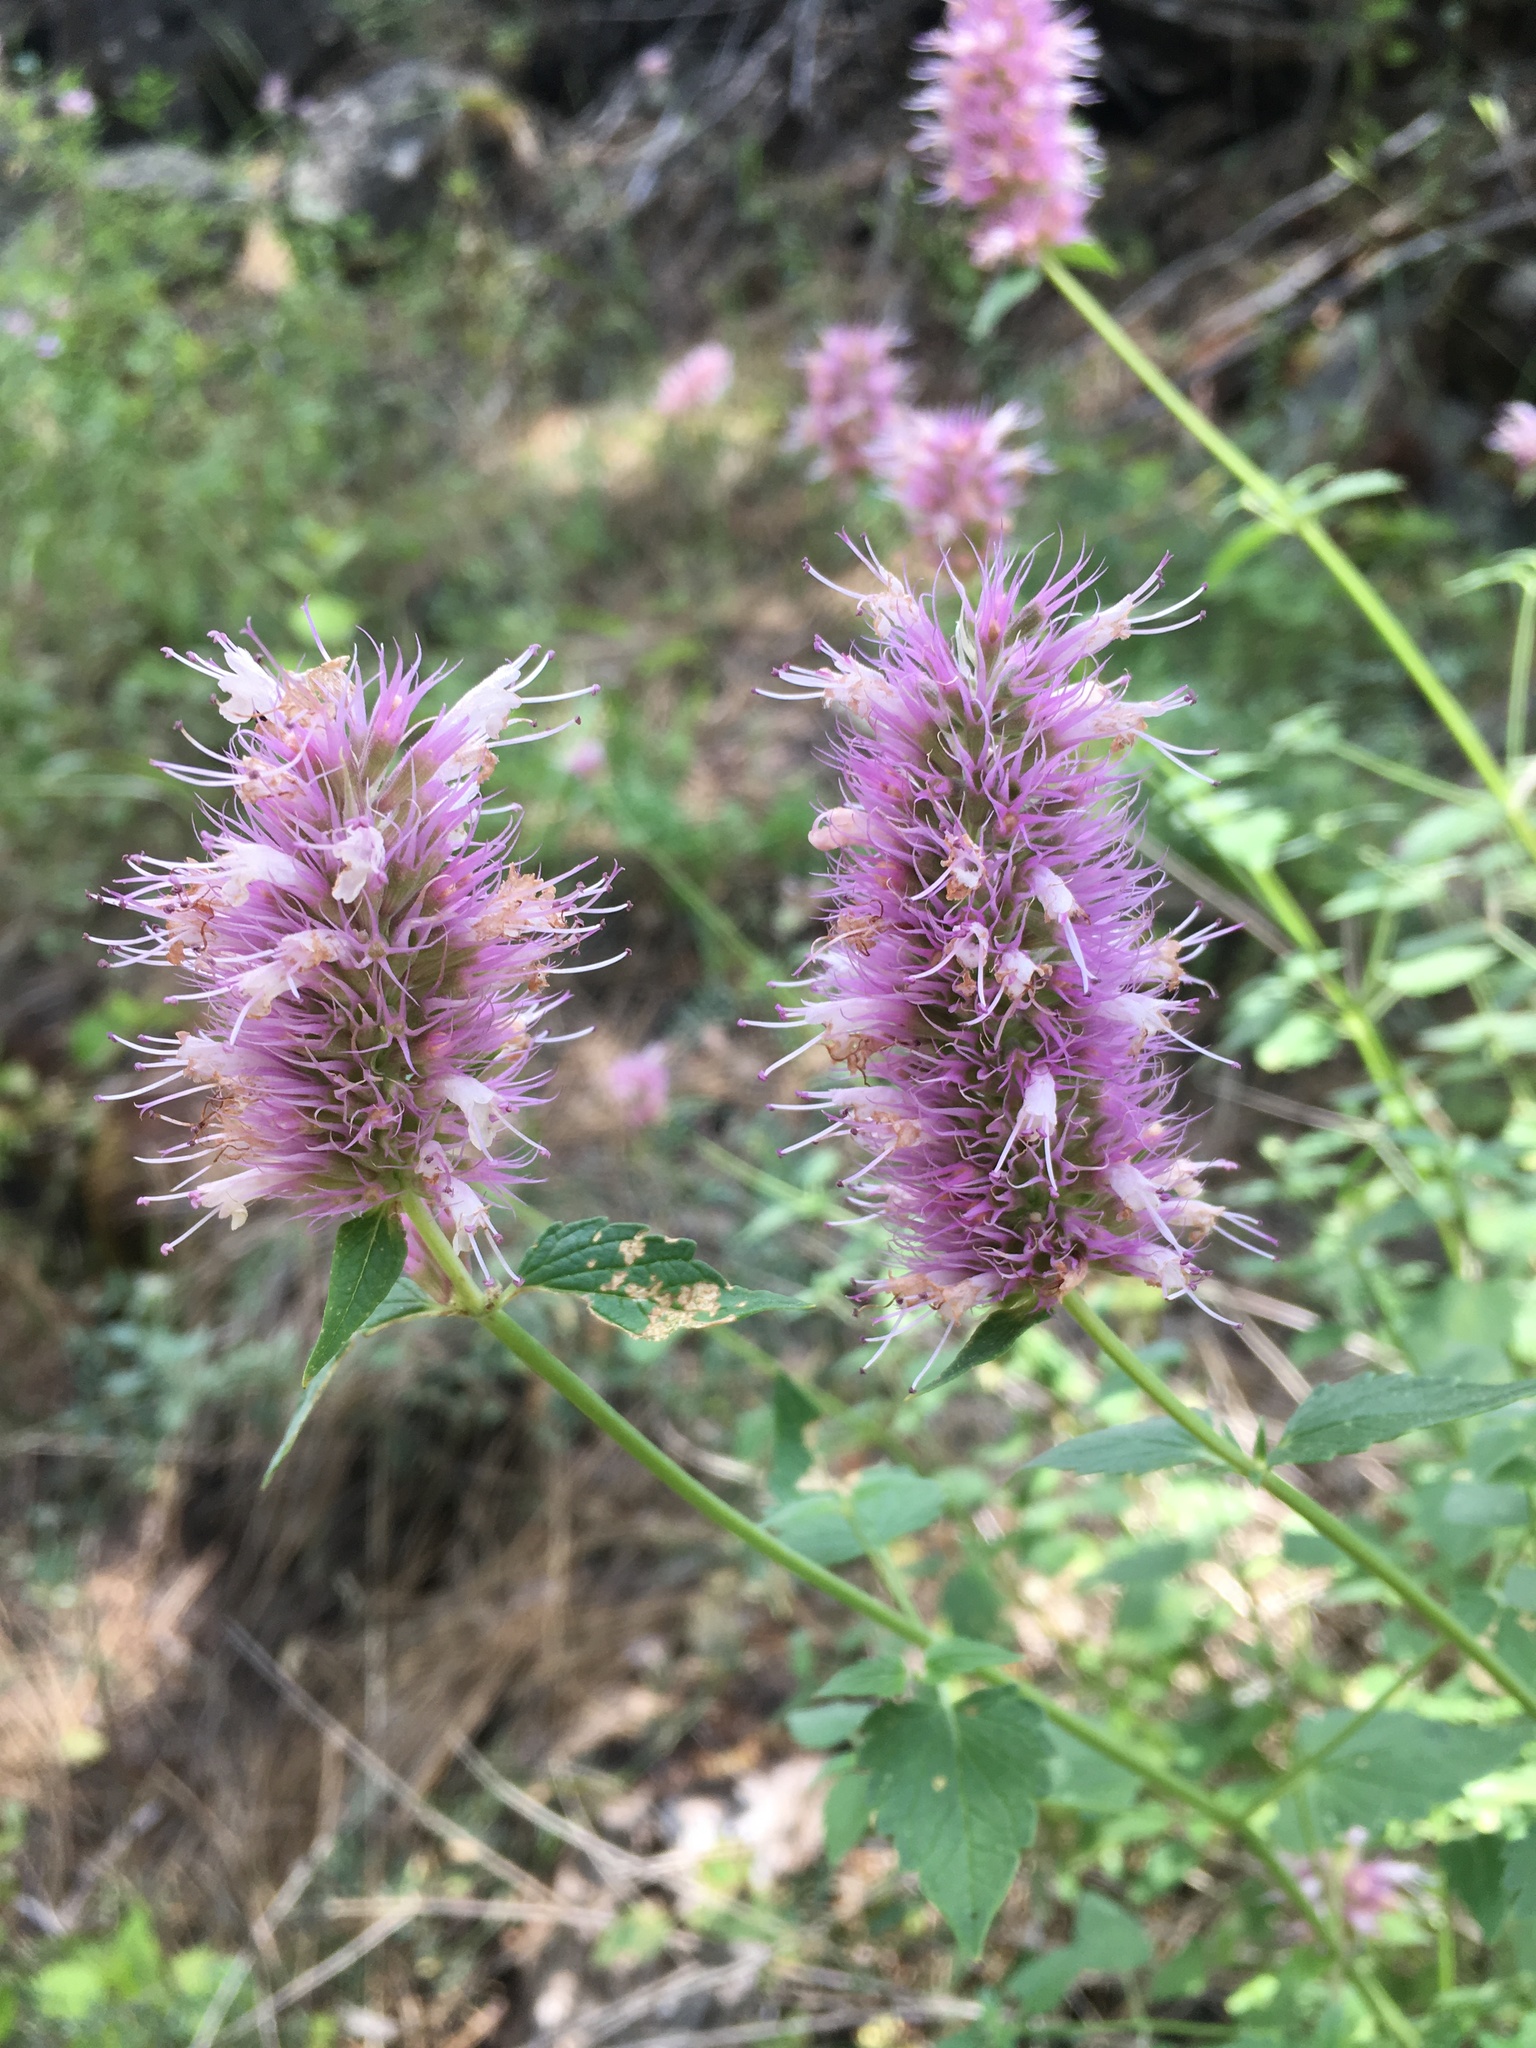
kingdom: Plantae
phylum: Tracheophyta
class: Magnoliopsida
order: Lamiales
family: Lamiaceae
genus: Agastache
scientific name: Agastache parvifolia
